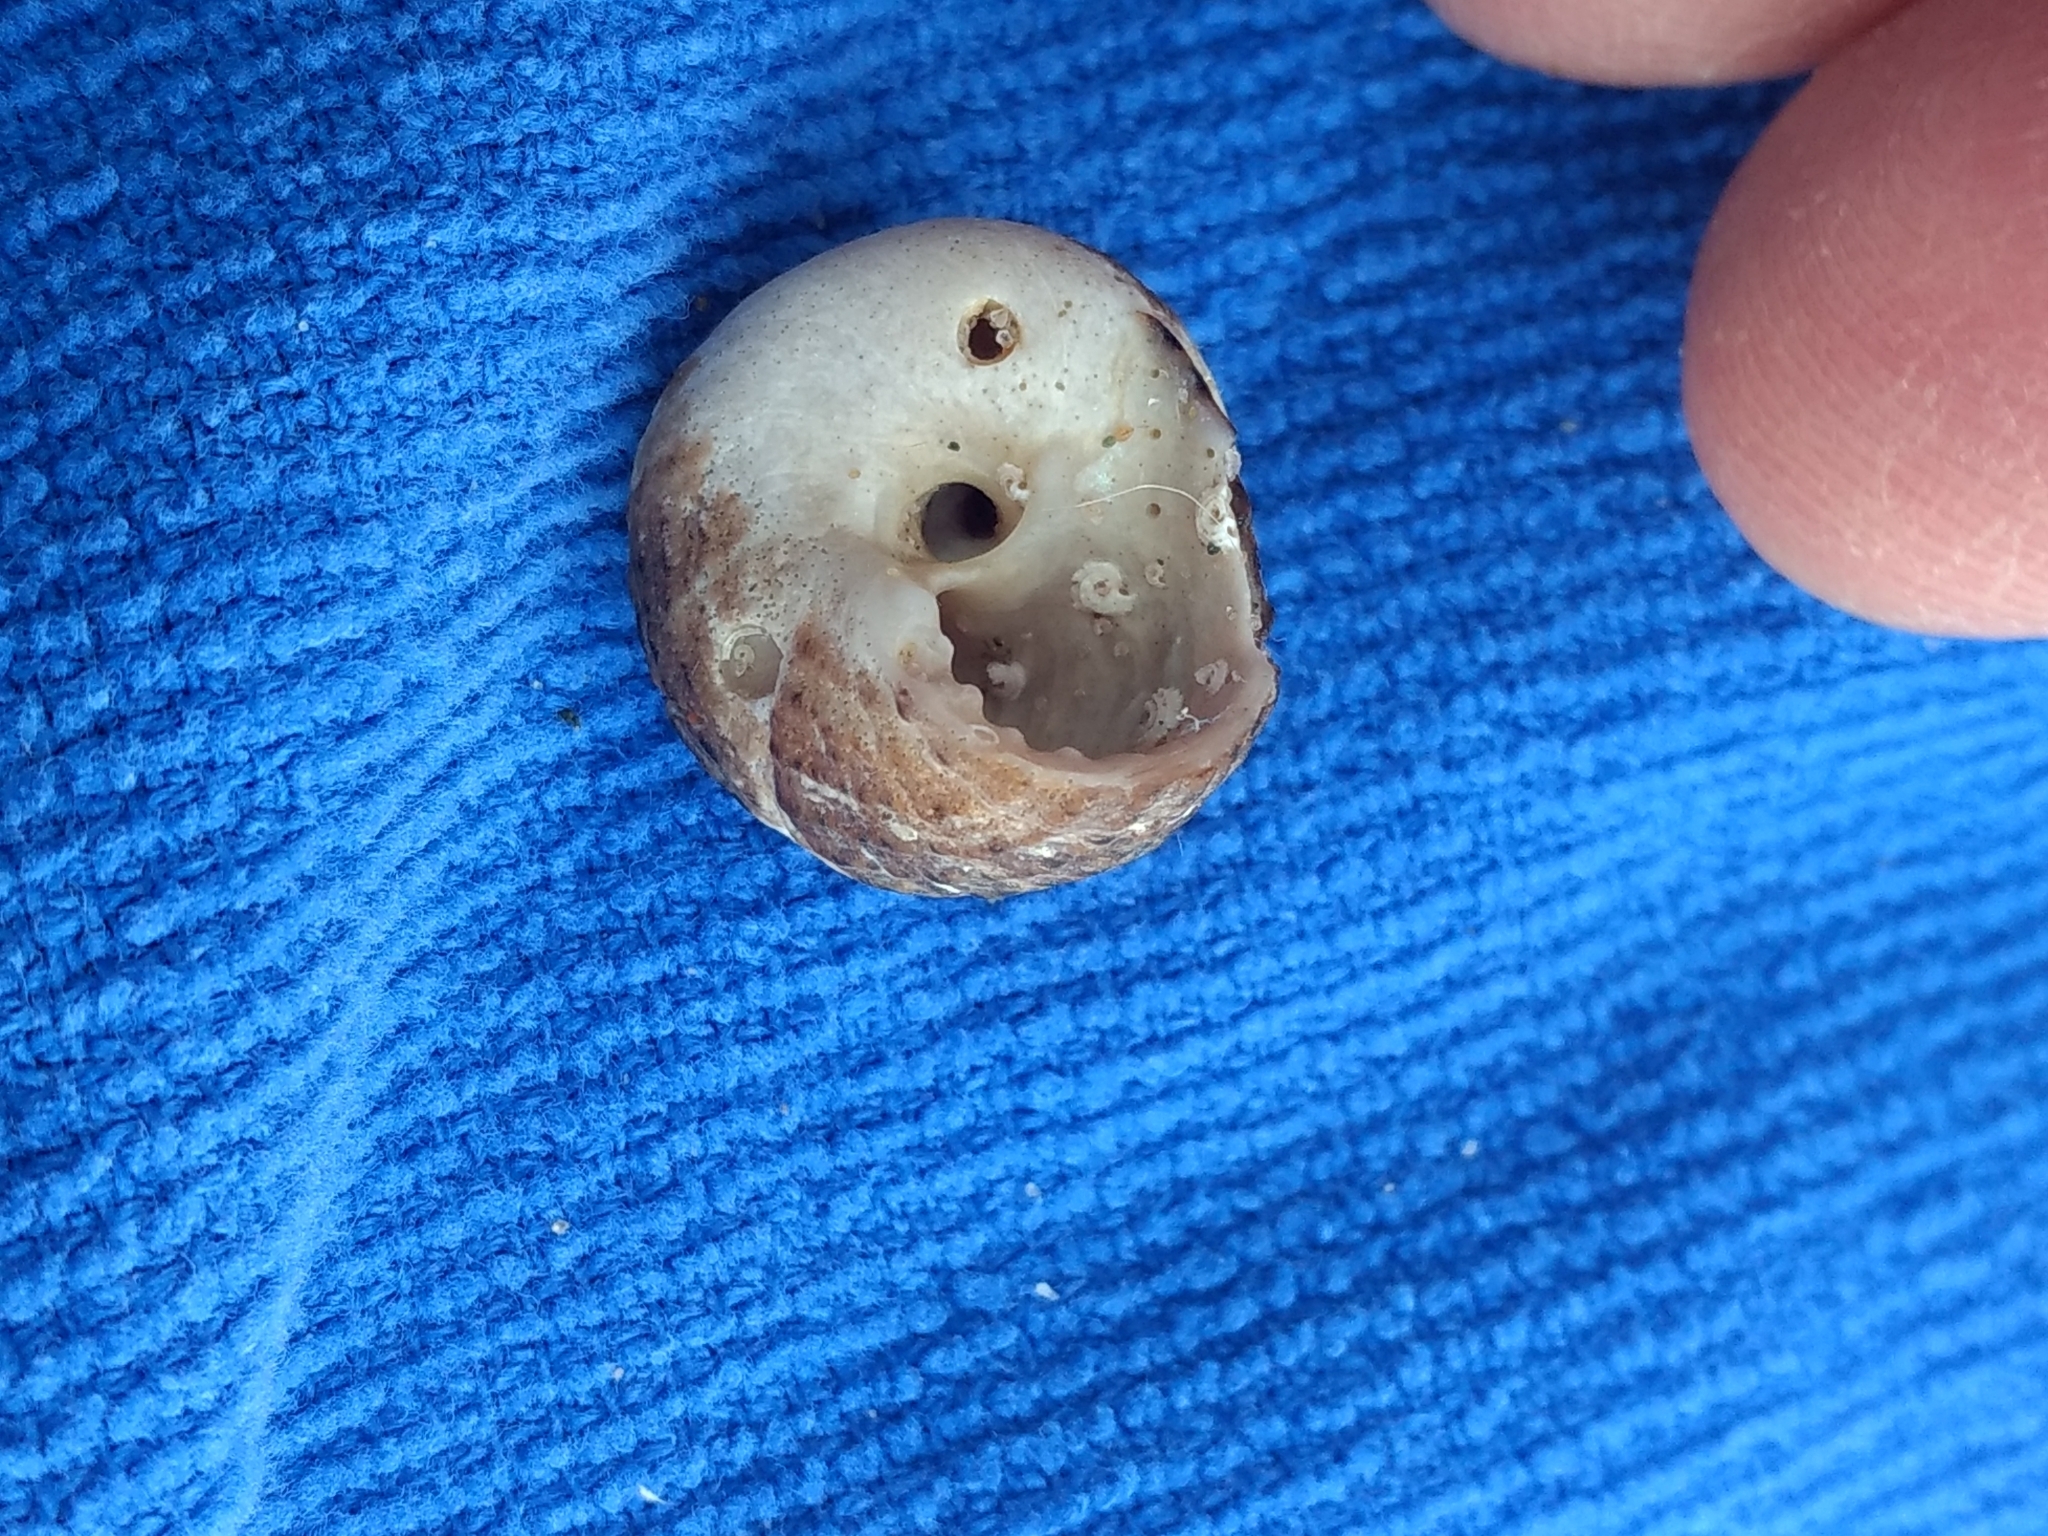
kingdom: Animalia
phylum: Mollusca
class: Gastropoda
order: Trochida
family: Tegulidae
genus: Tegula
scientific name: Tegula eiseni
